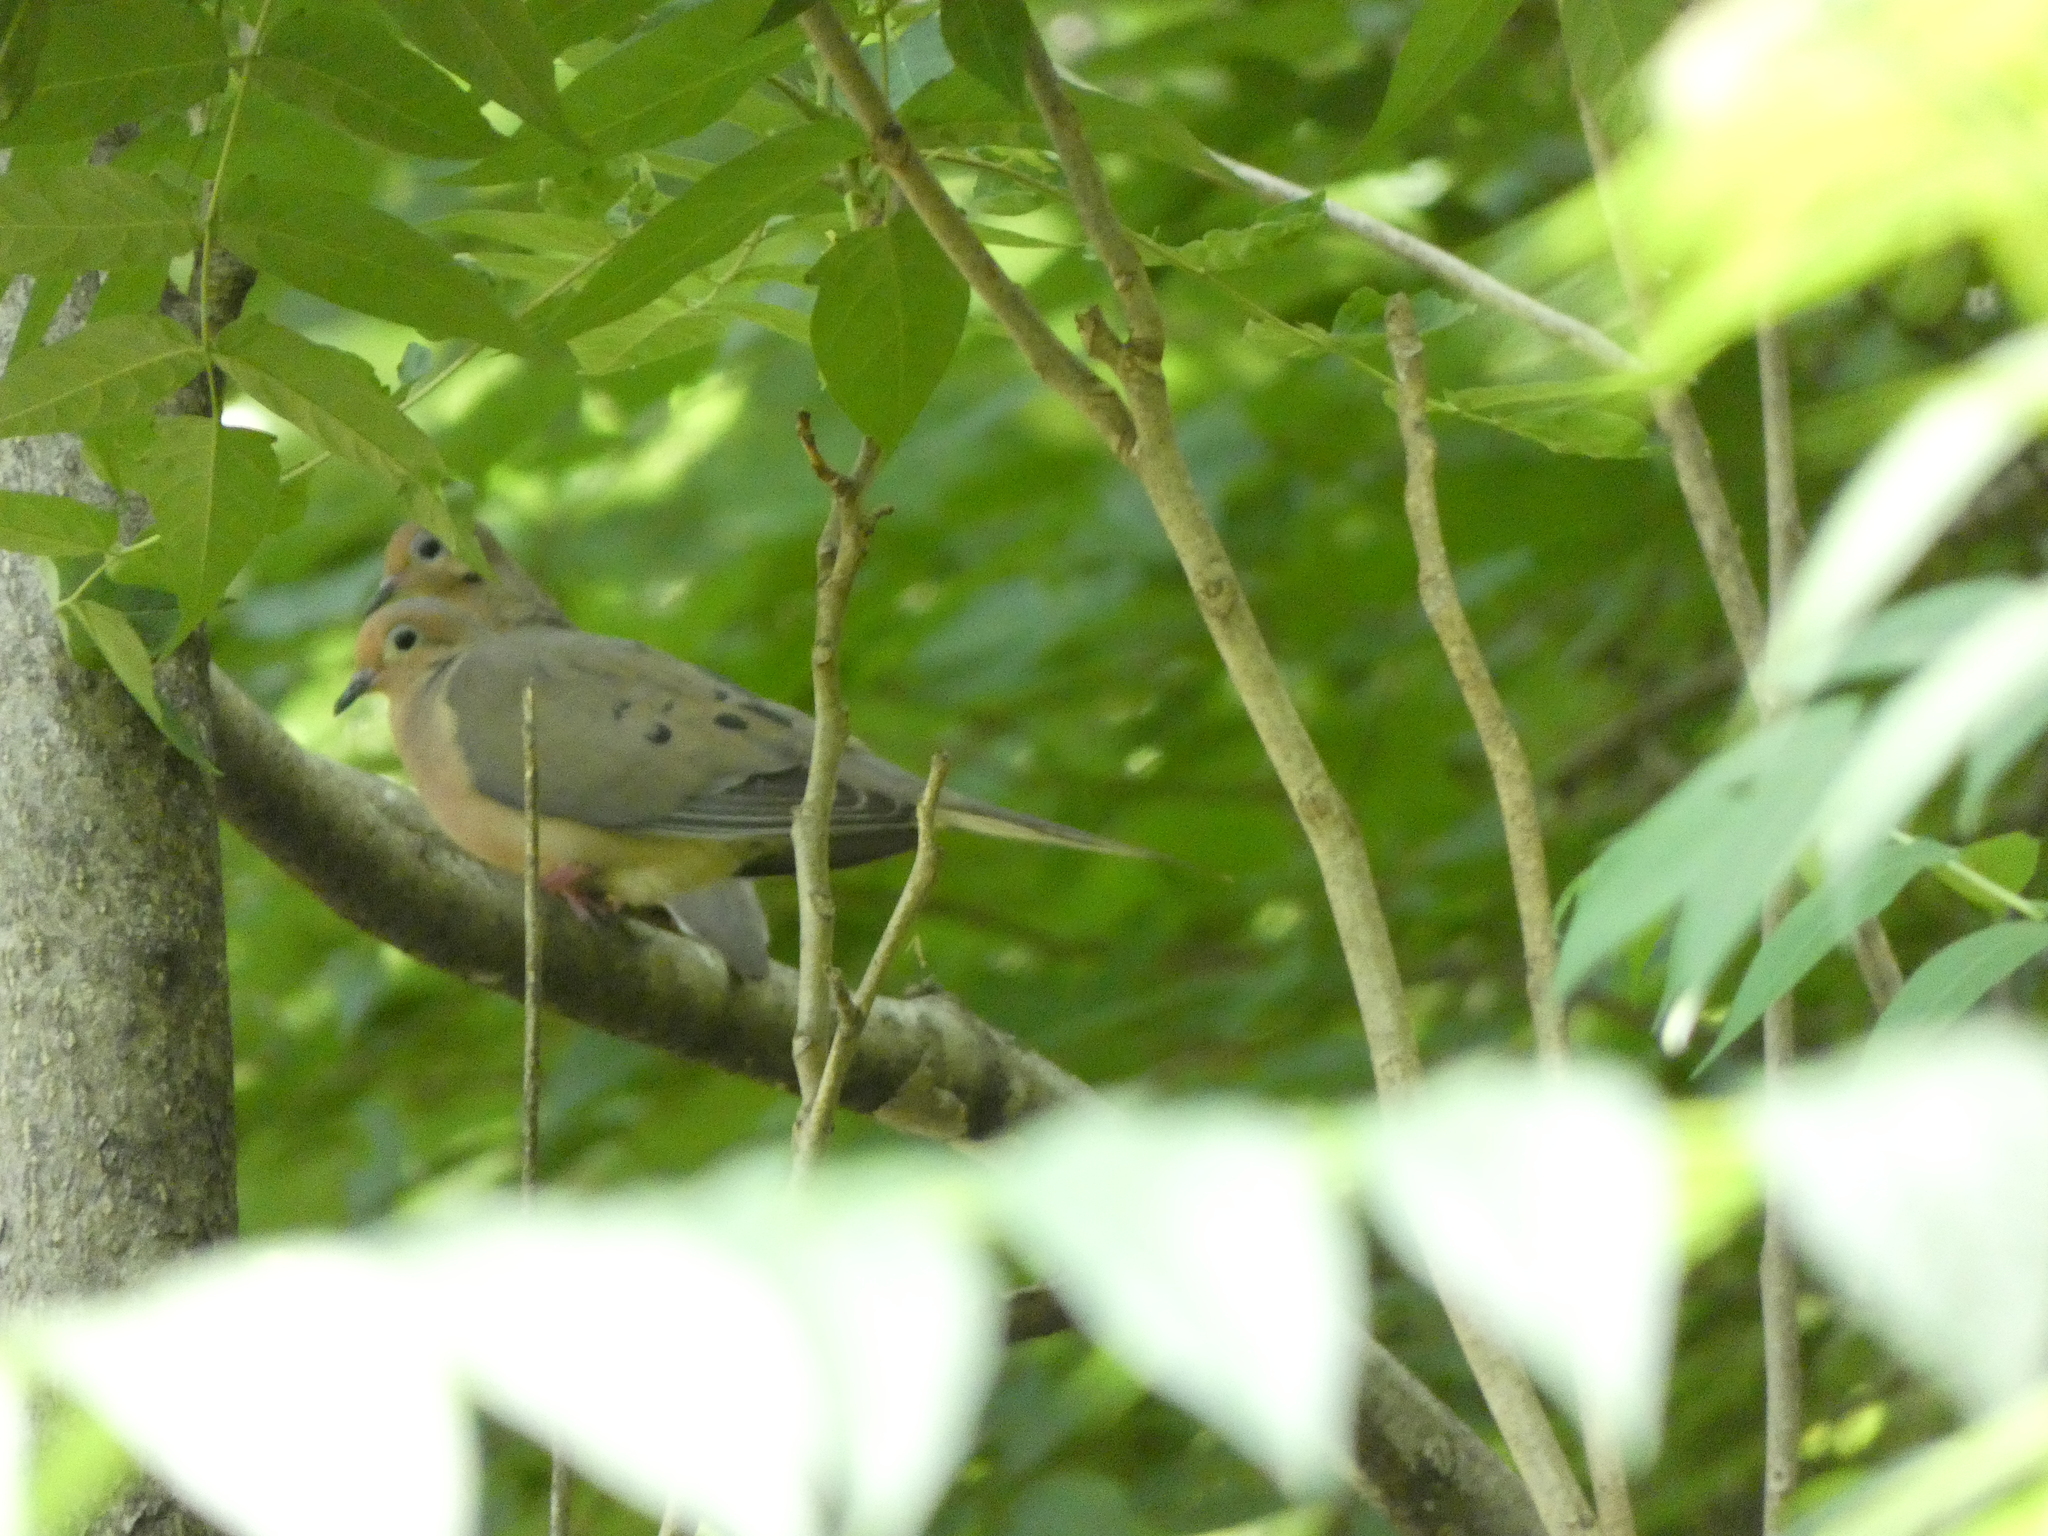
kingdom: Animalia
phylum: Chordata
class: Aves
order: Columbiformes
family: Columbidae
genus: Zenaida
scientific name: Zenaida macroura
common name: Mourning dove
